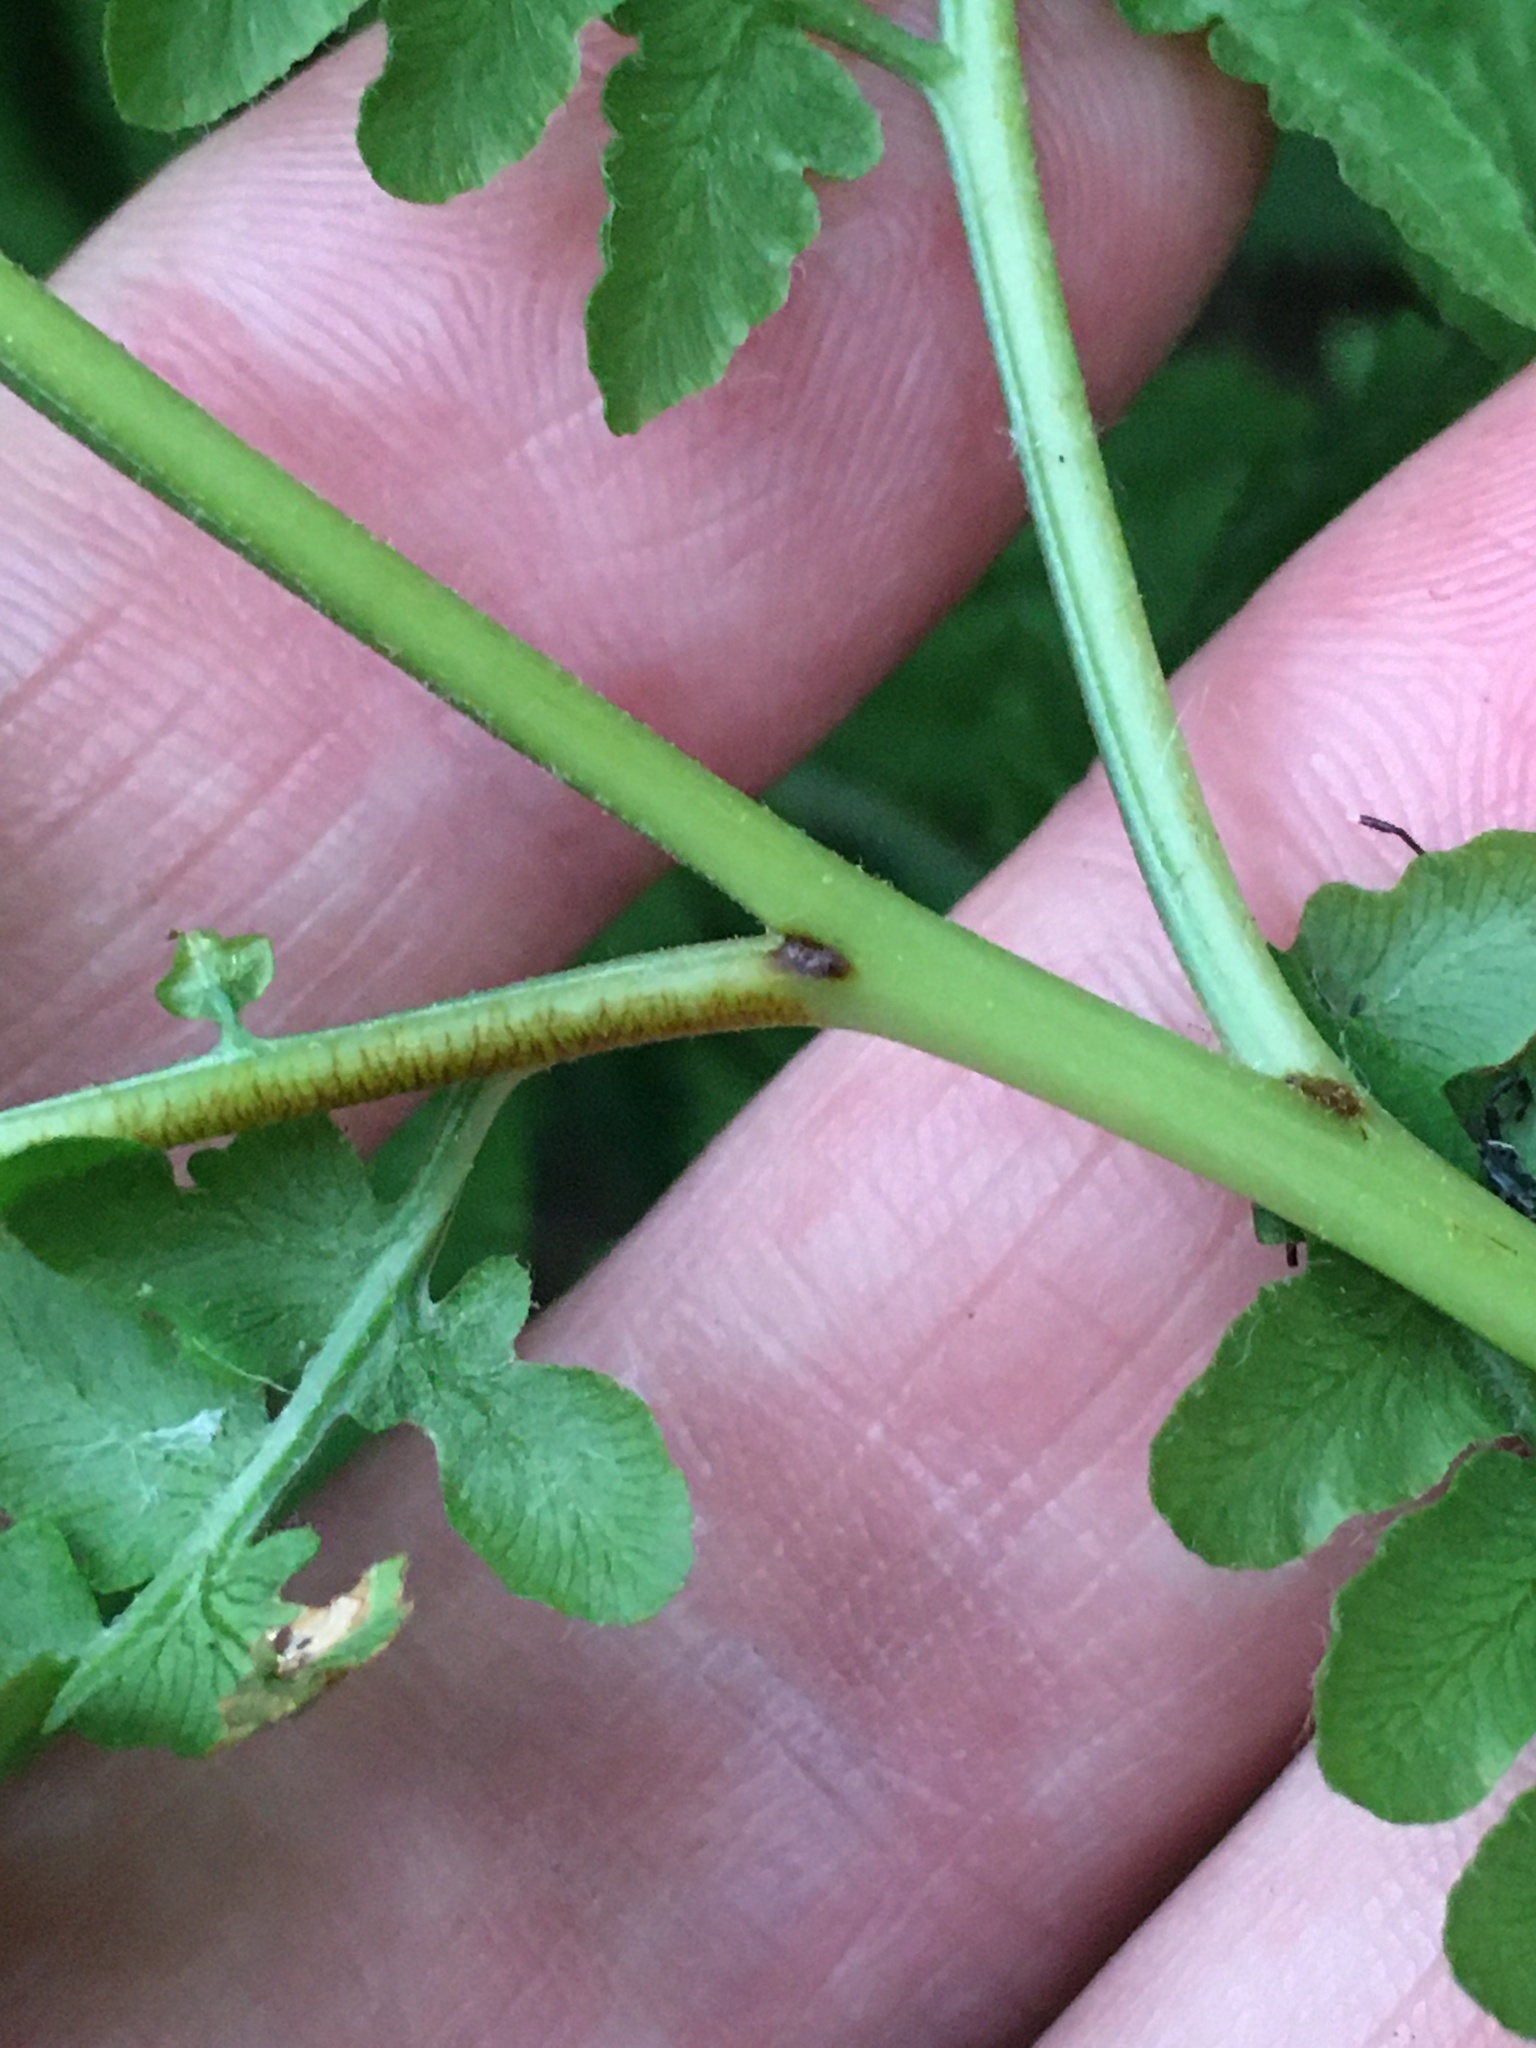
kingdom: Plantae
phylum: Tracheophyta
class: Polypodiopsida
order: Polypodiales
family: Dennstaedtiaceae
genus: Pteridium
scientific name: Pteridium aquilinum
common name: Bracken
